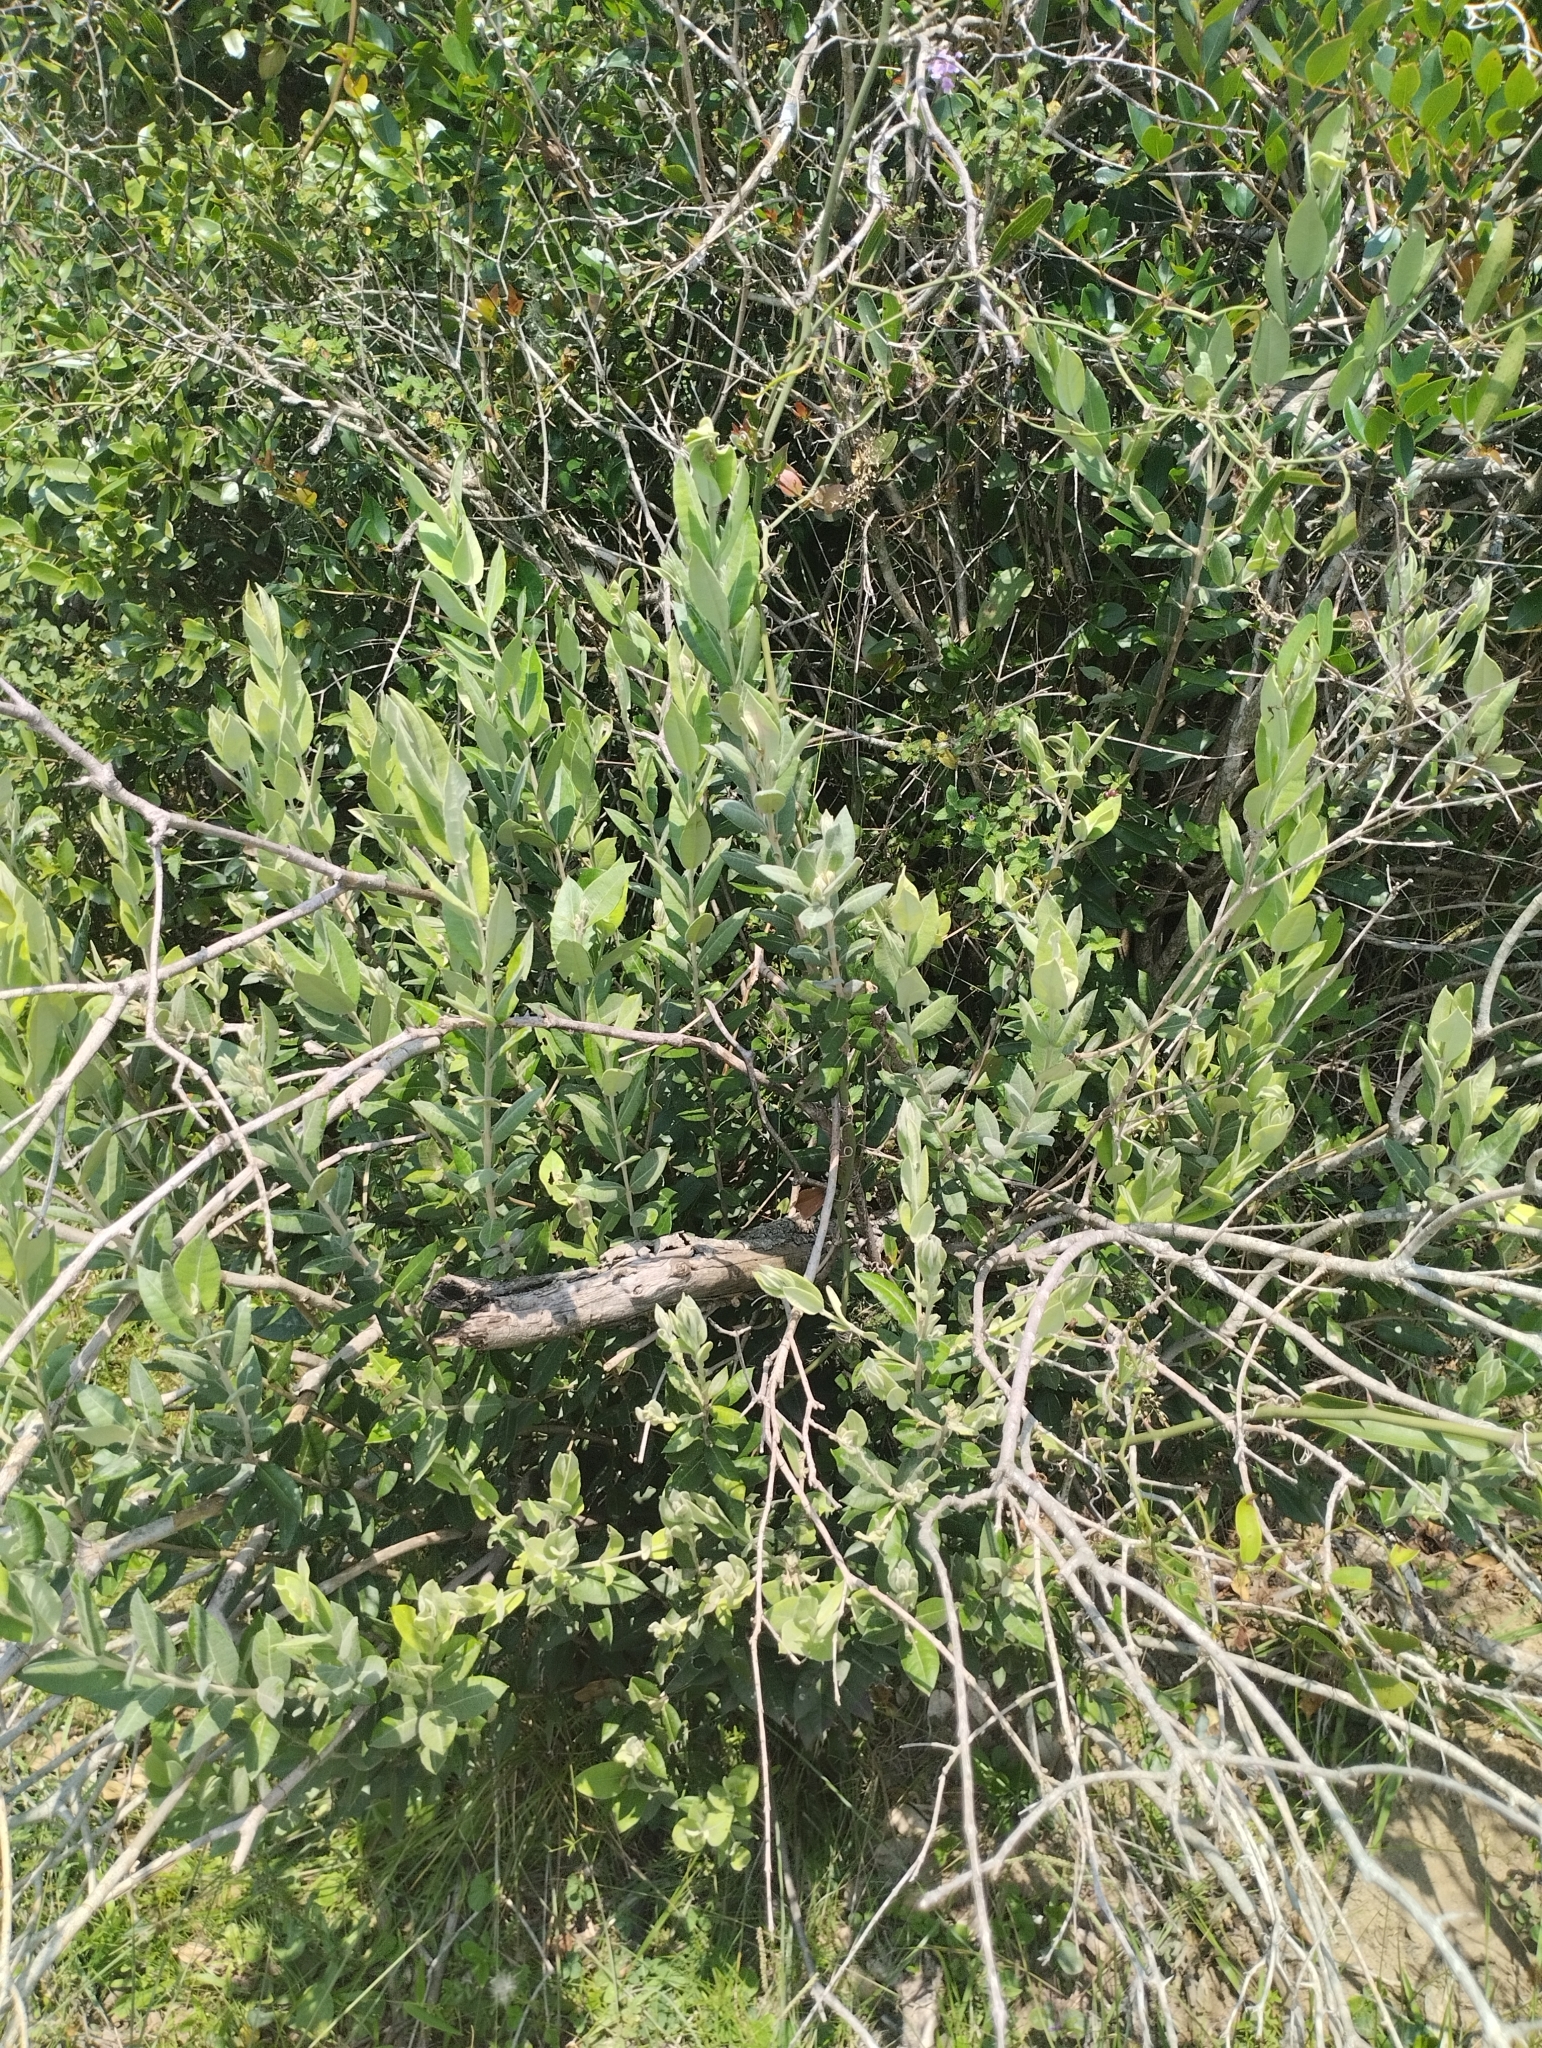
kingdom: Plantae
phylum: Tracheophyta
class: Magnoliopsida
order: Myrtales
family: Myrtaceae
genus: Myrceugenia
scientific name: Myrceugenia myrtoides
